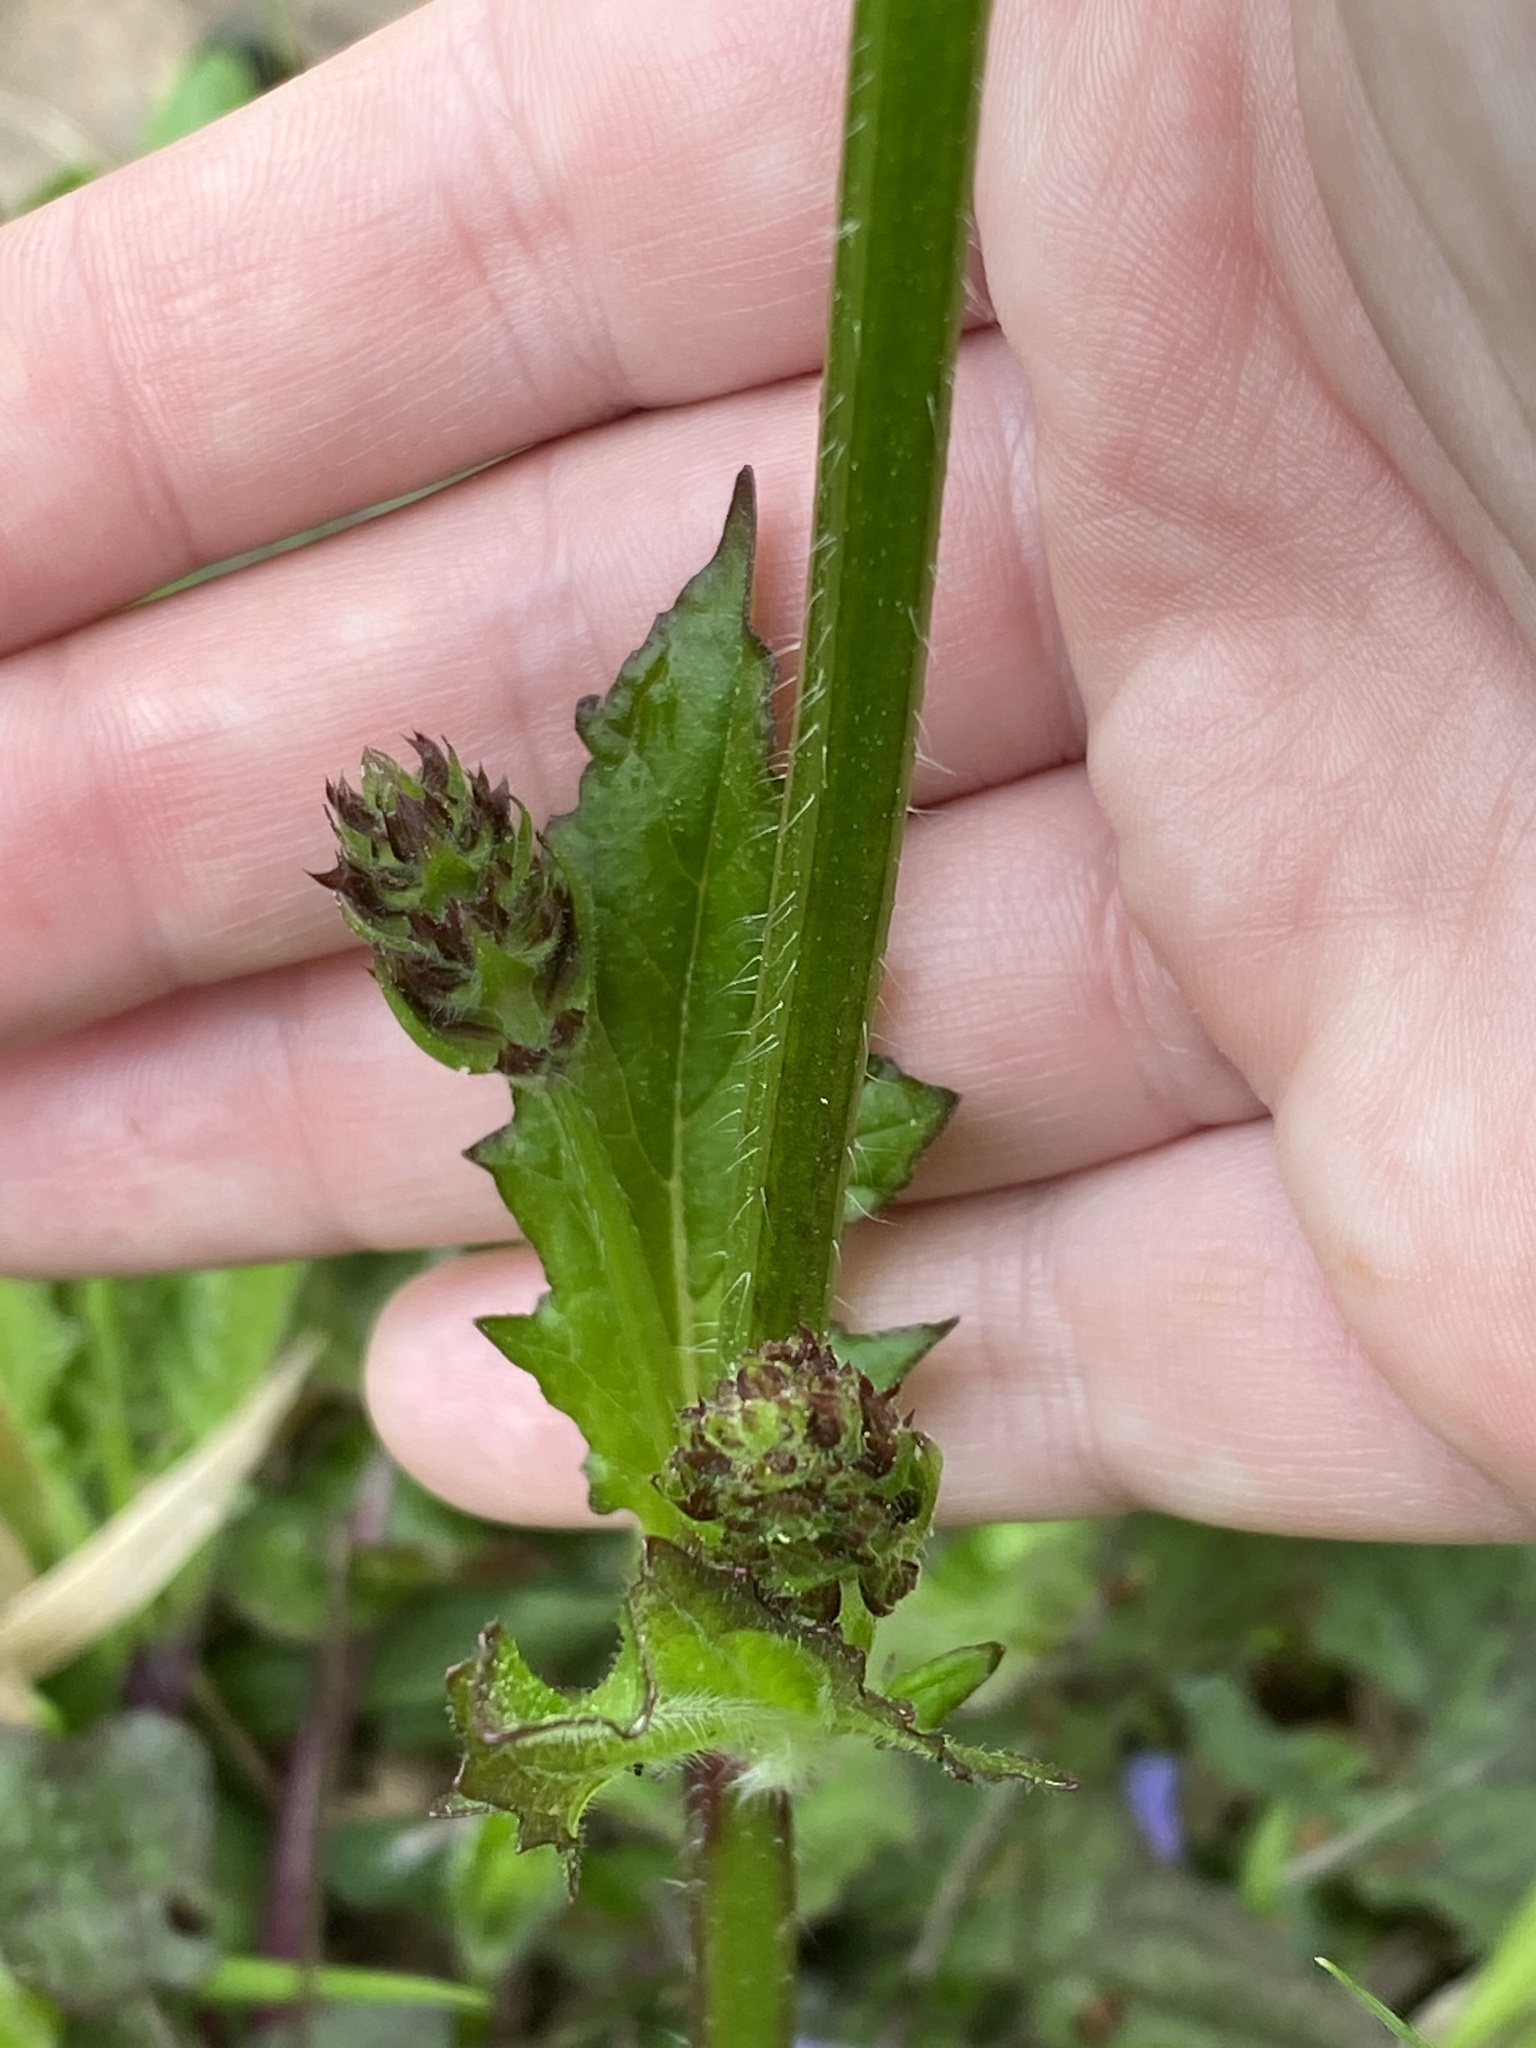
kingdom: Plantae
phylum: Tracheophyta
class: Magnoliopsida
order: Lamiales
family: Lamiaceae
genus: Salvia
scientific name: Salvia lyrata
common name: Cancerweed
